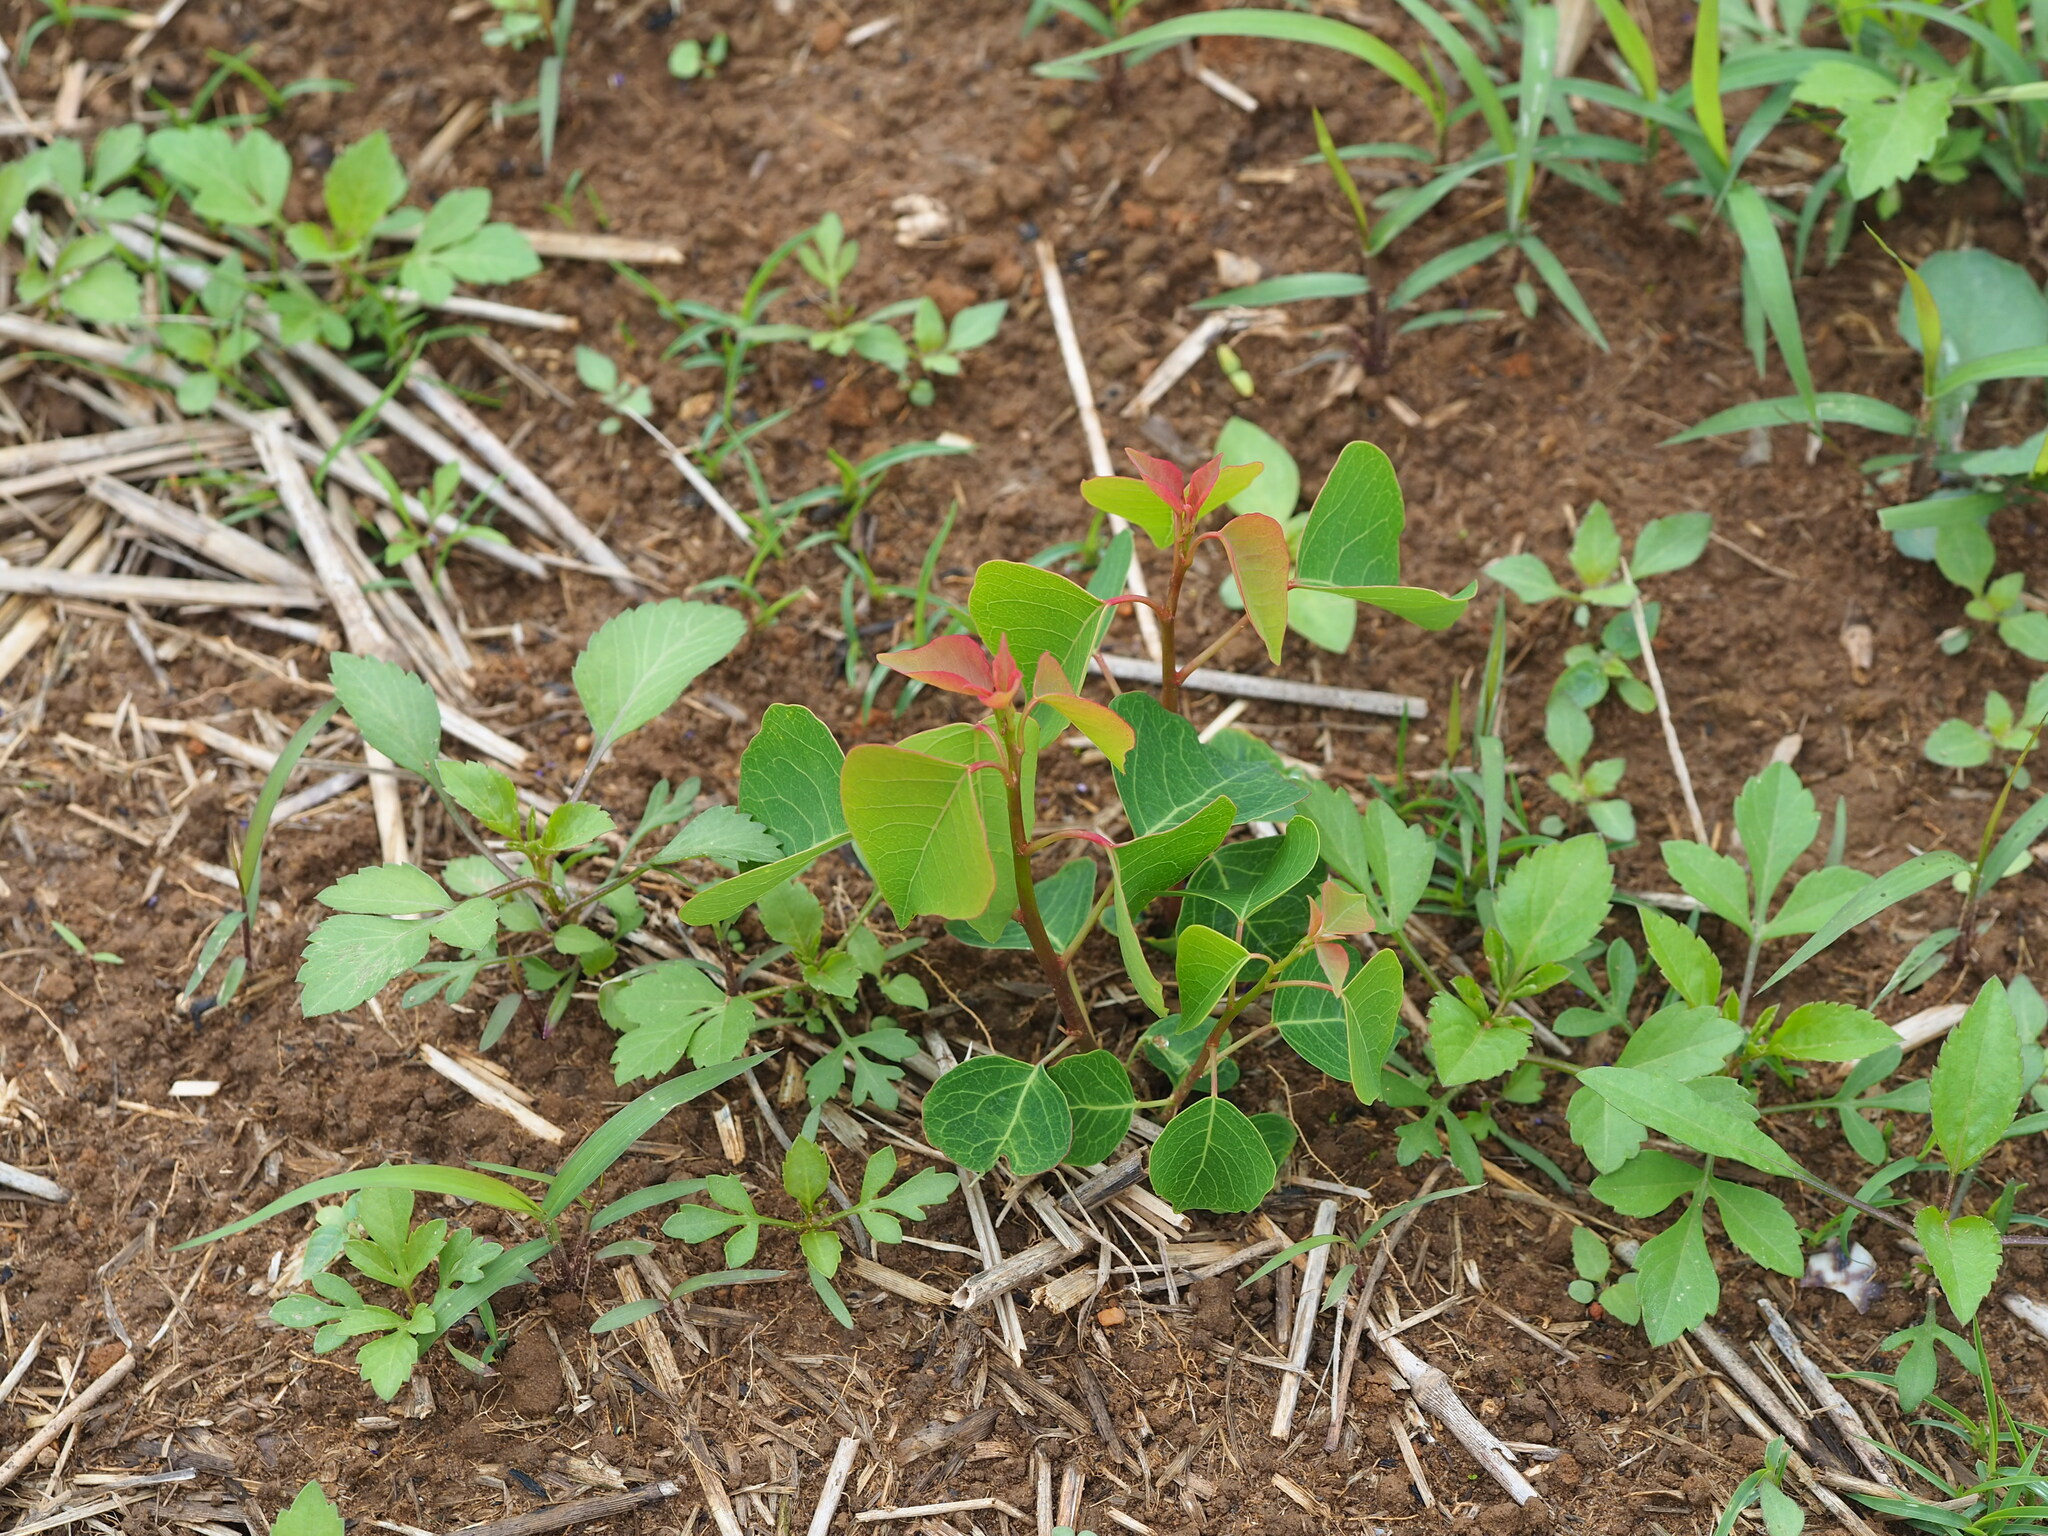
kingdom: Plantae
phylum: Tracheophyta
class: Magnoliopsida
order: Malpighiales
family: Euphorbiaceae
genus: Triadica
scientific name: Triadica sebifera
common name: Chinese tallow
